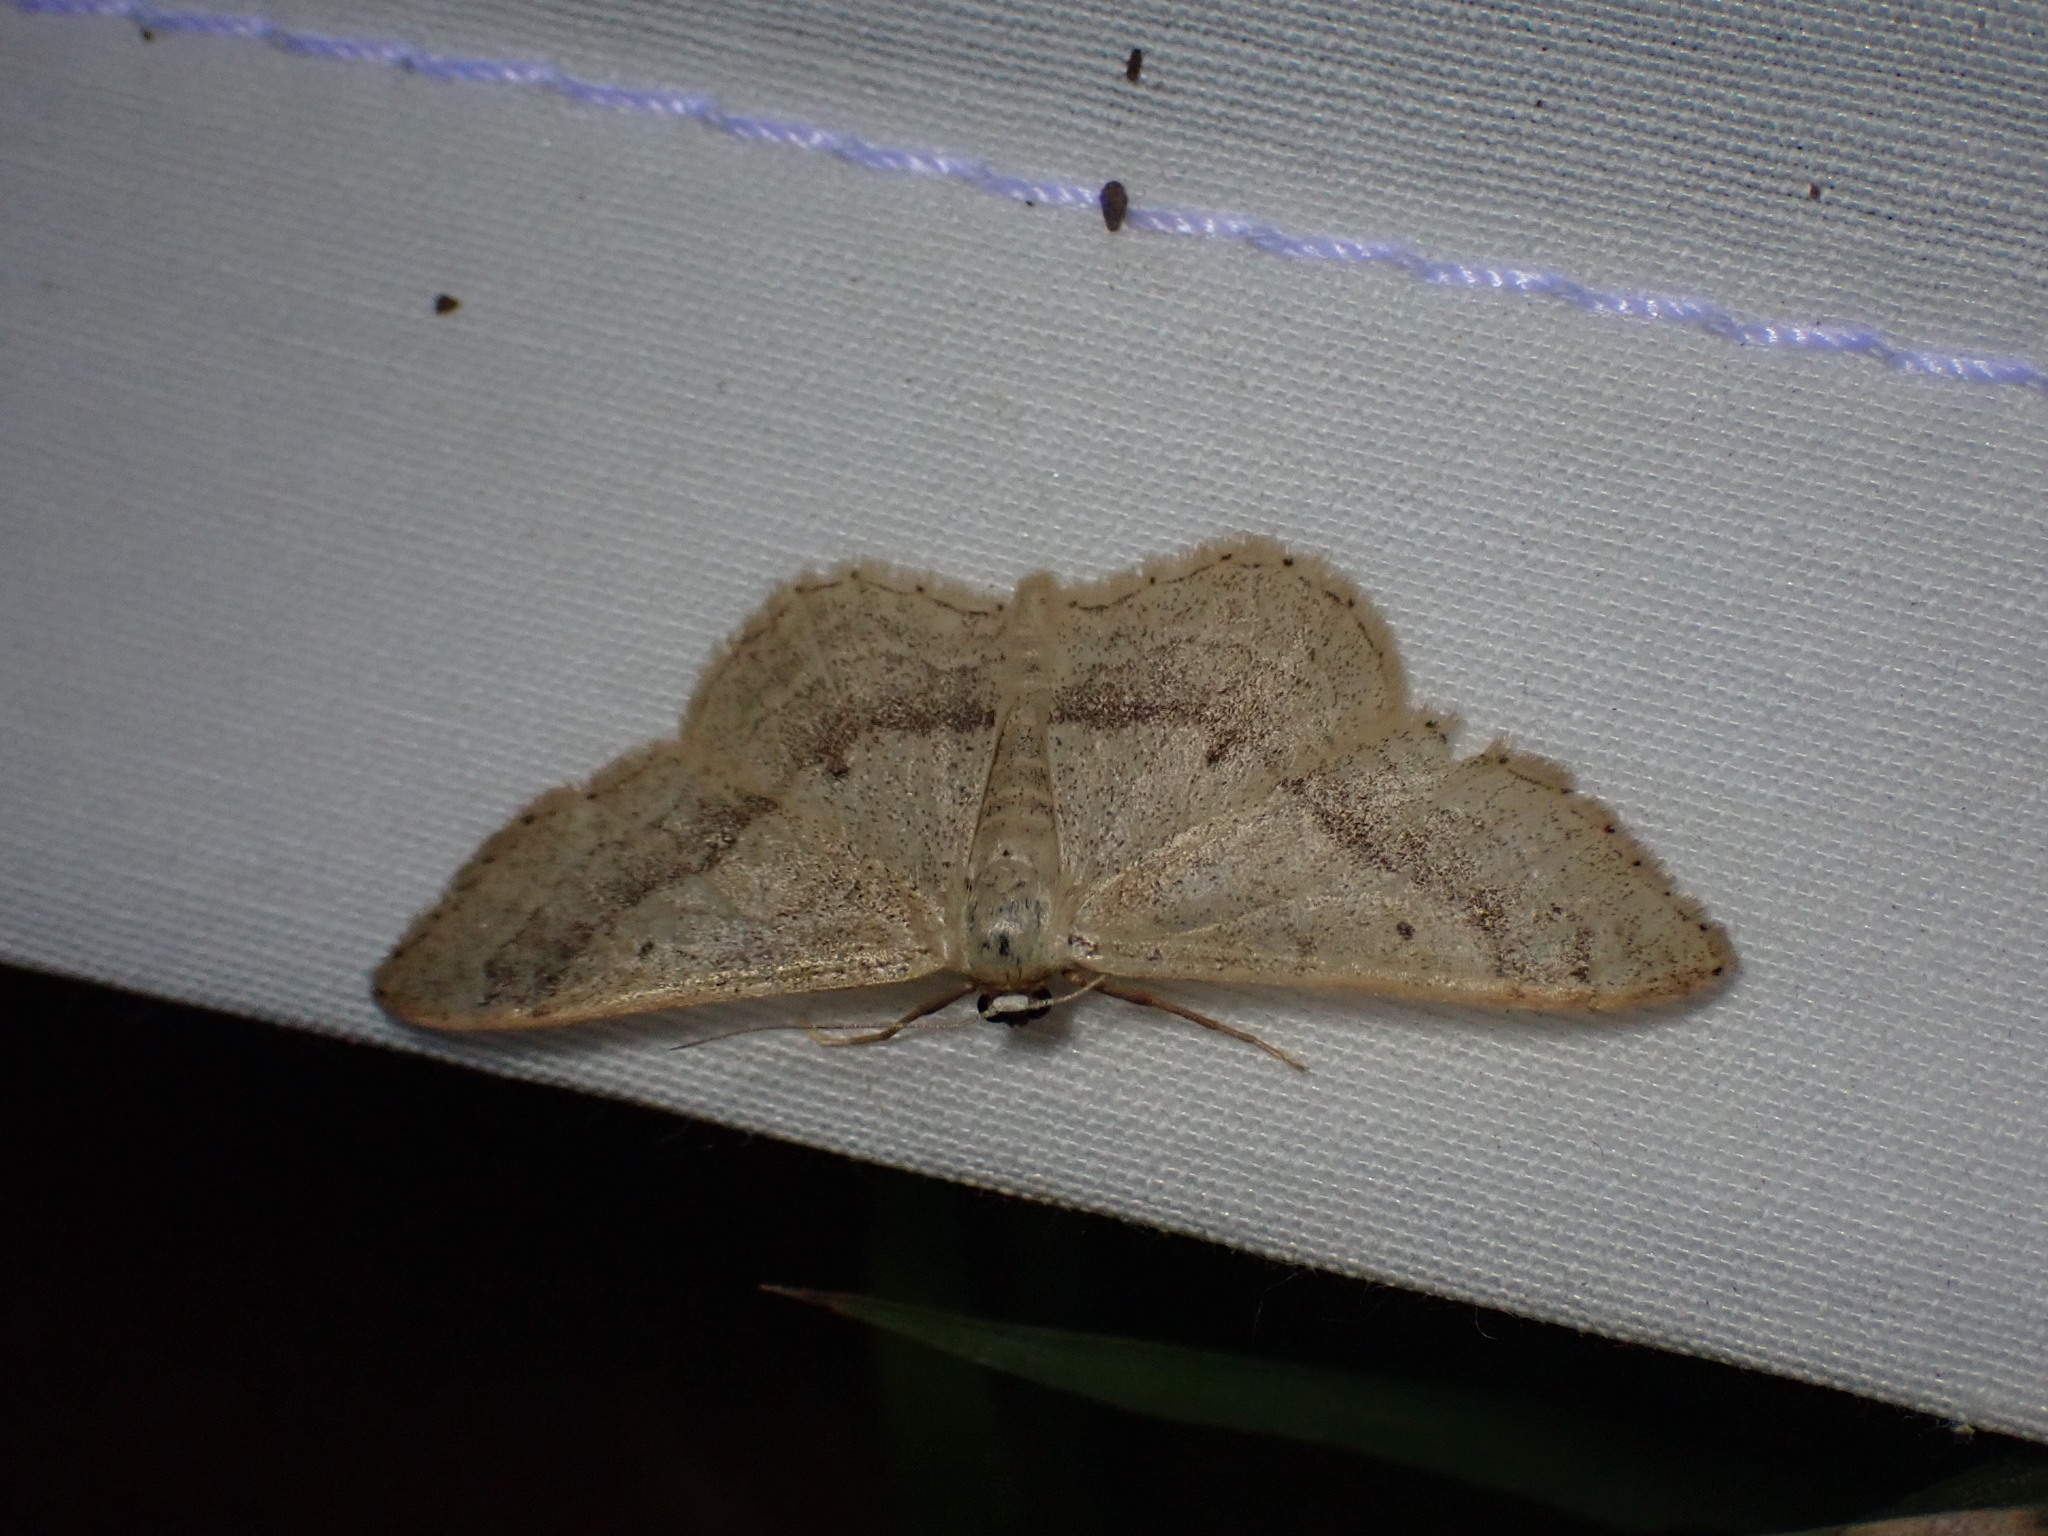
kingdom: Animalia
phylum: Arthropoda
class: Insecta
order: Lepidoptera
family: Geometridae
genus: Idaea
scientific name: Idaea aversata
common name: Riband wave
